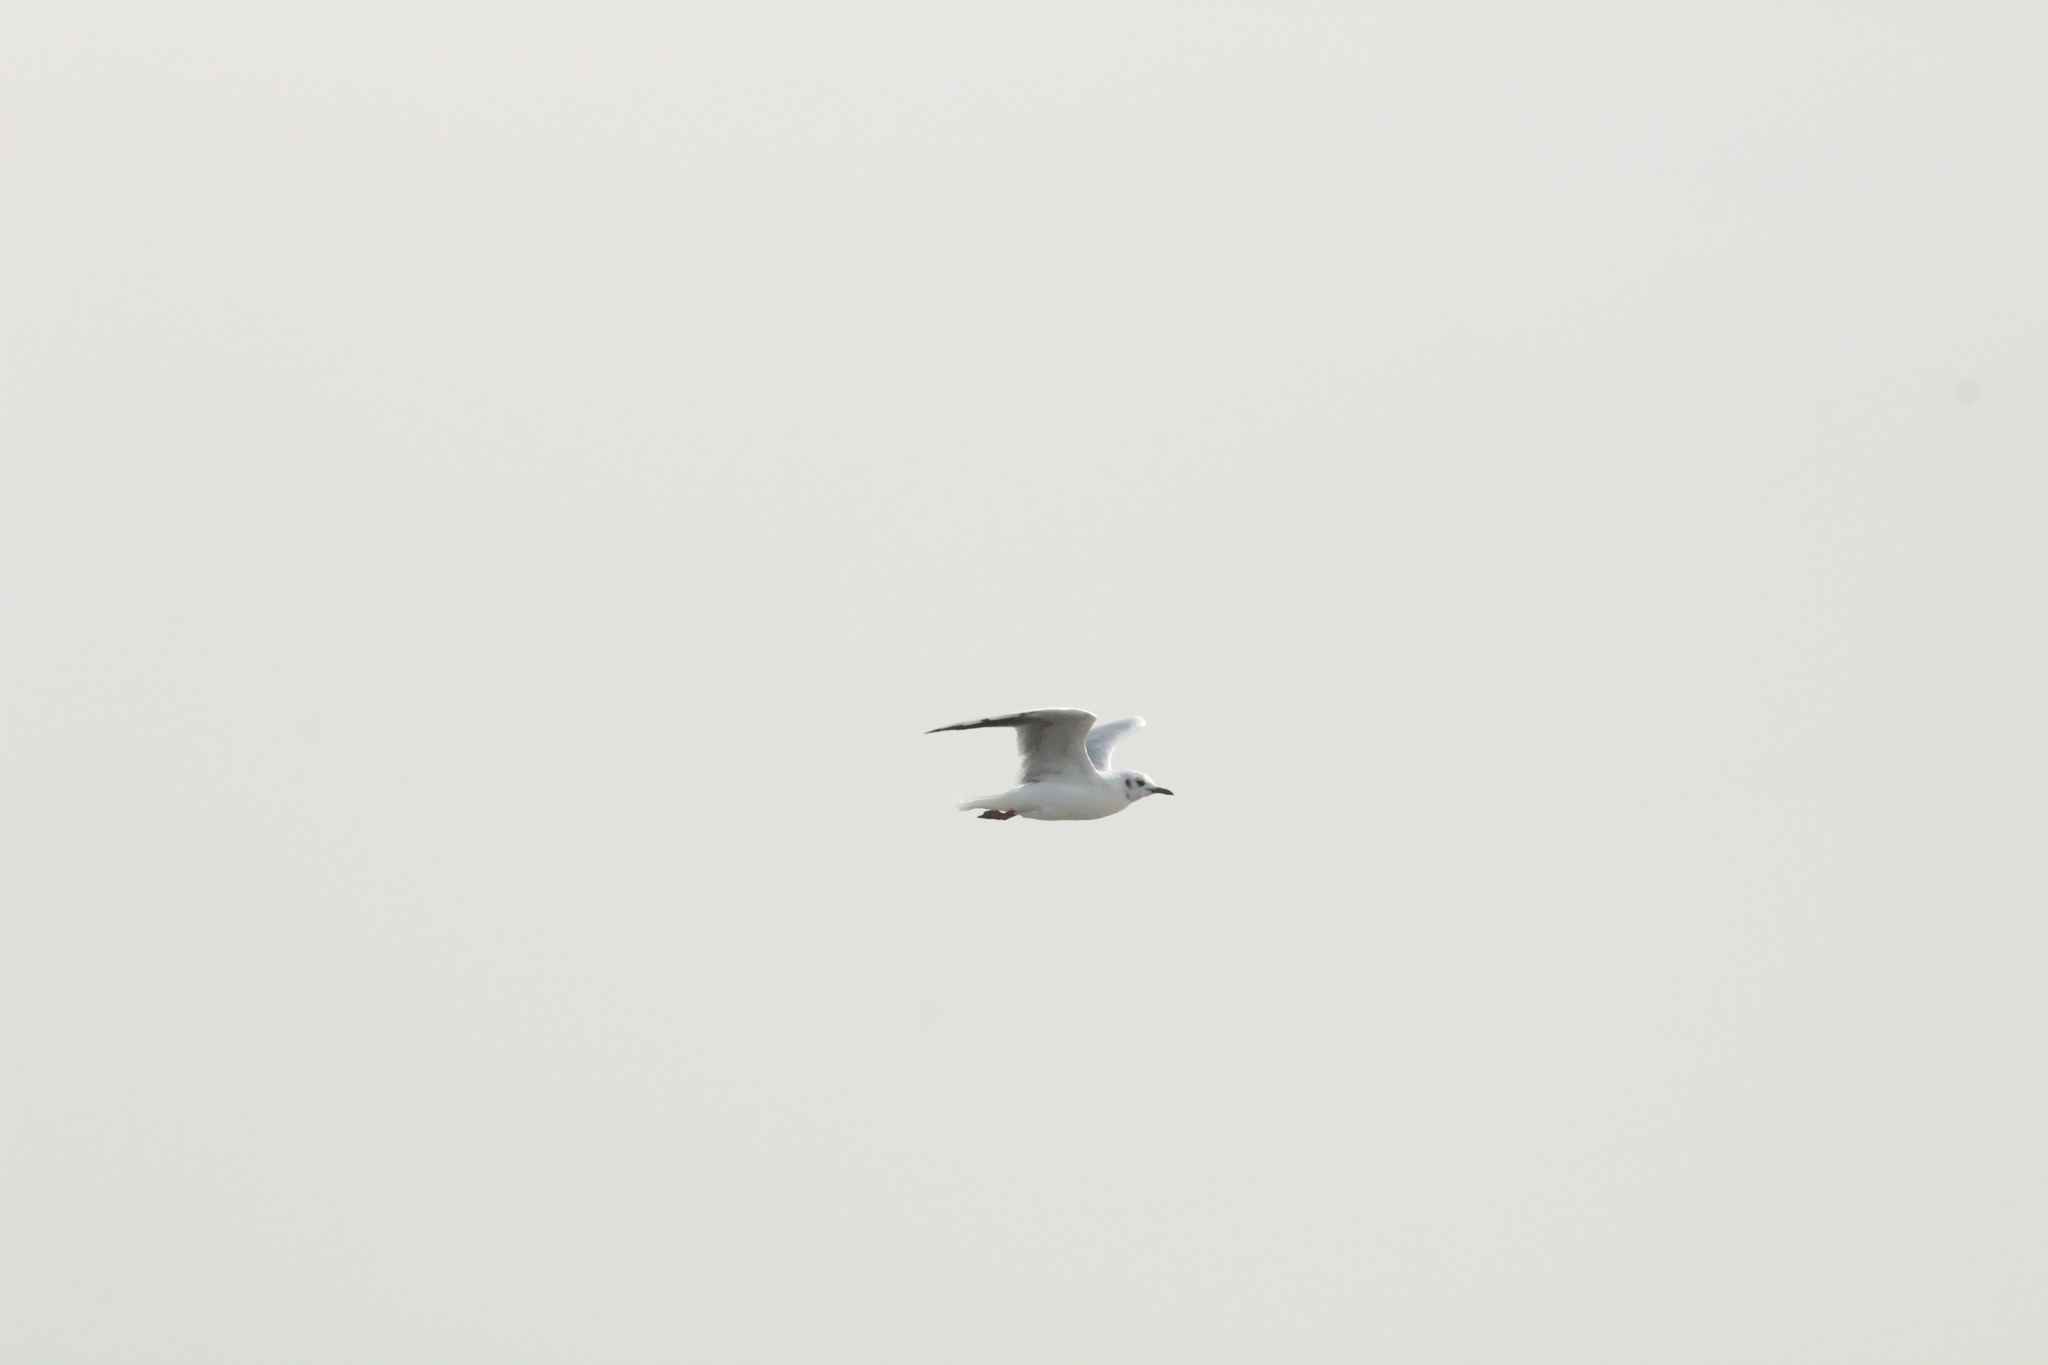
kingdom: Animalia
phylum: Chordata
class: Aves
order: Charadriiformes
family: Laridae
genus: Chroicocephalus
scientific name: Chroicocephalus ridibundus
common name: Black-headed gull
